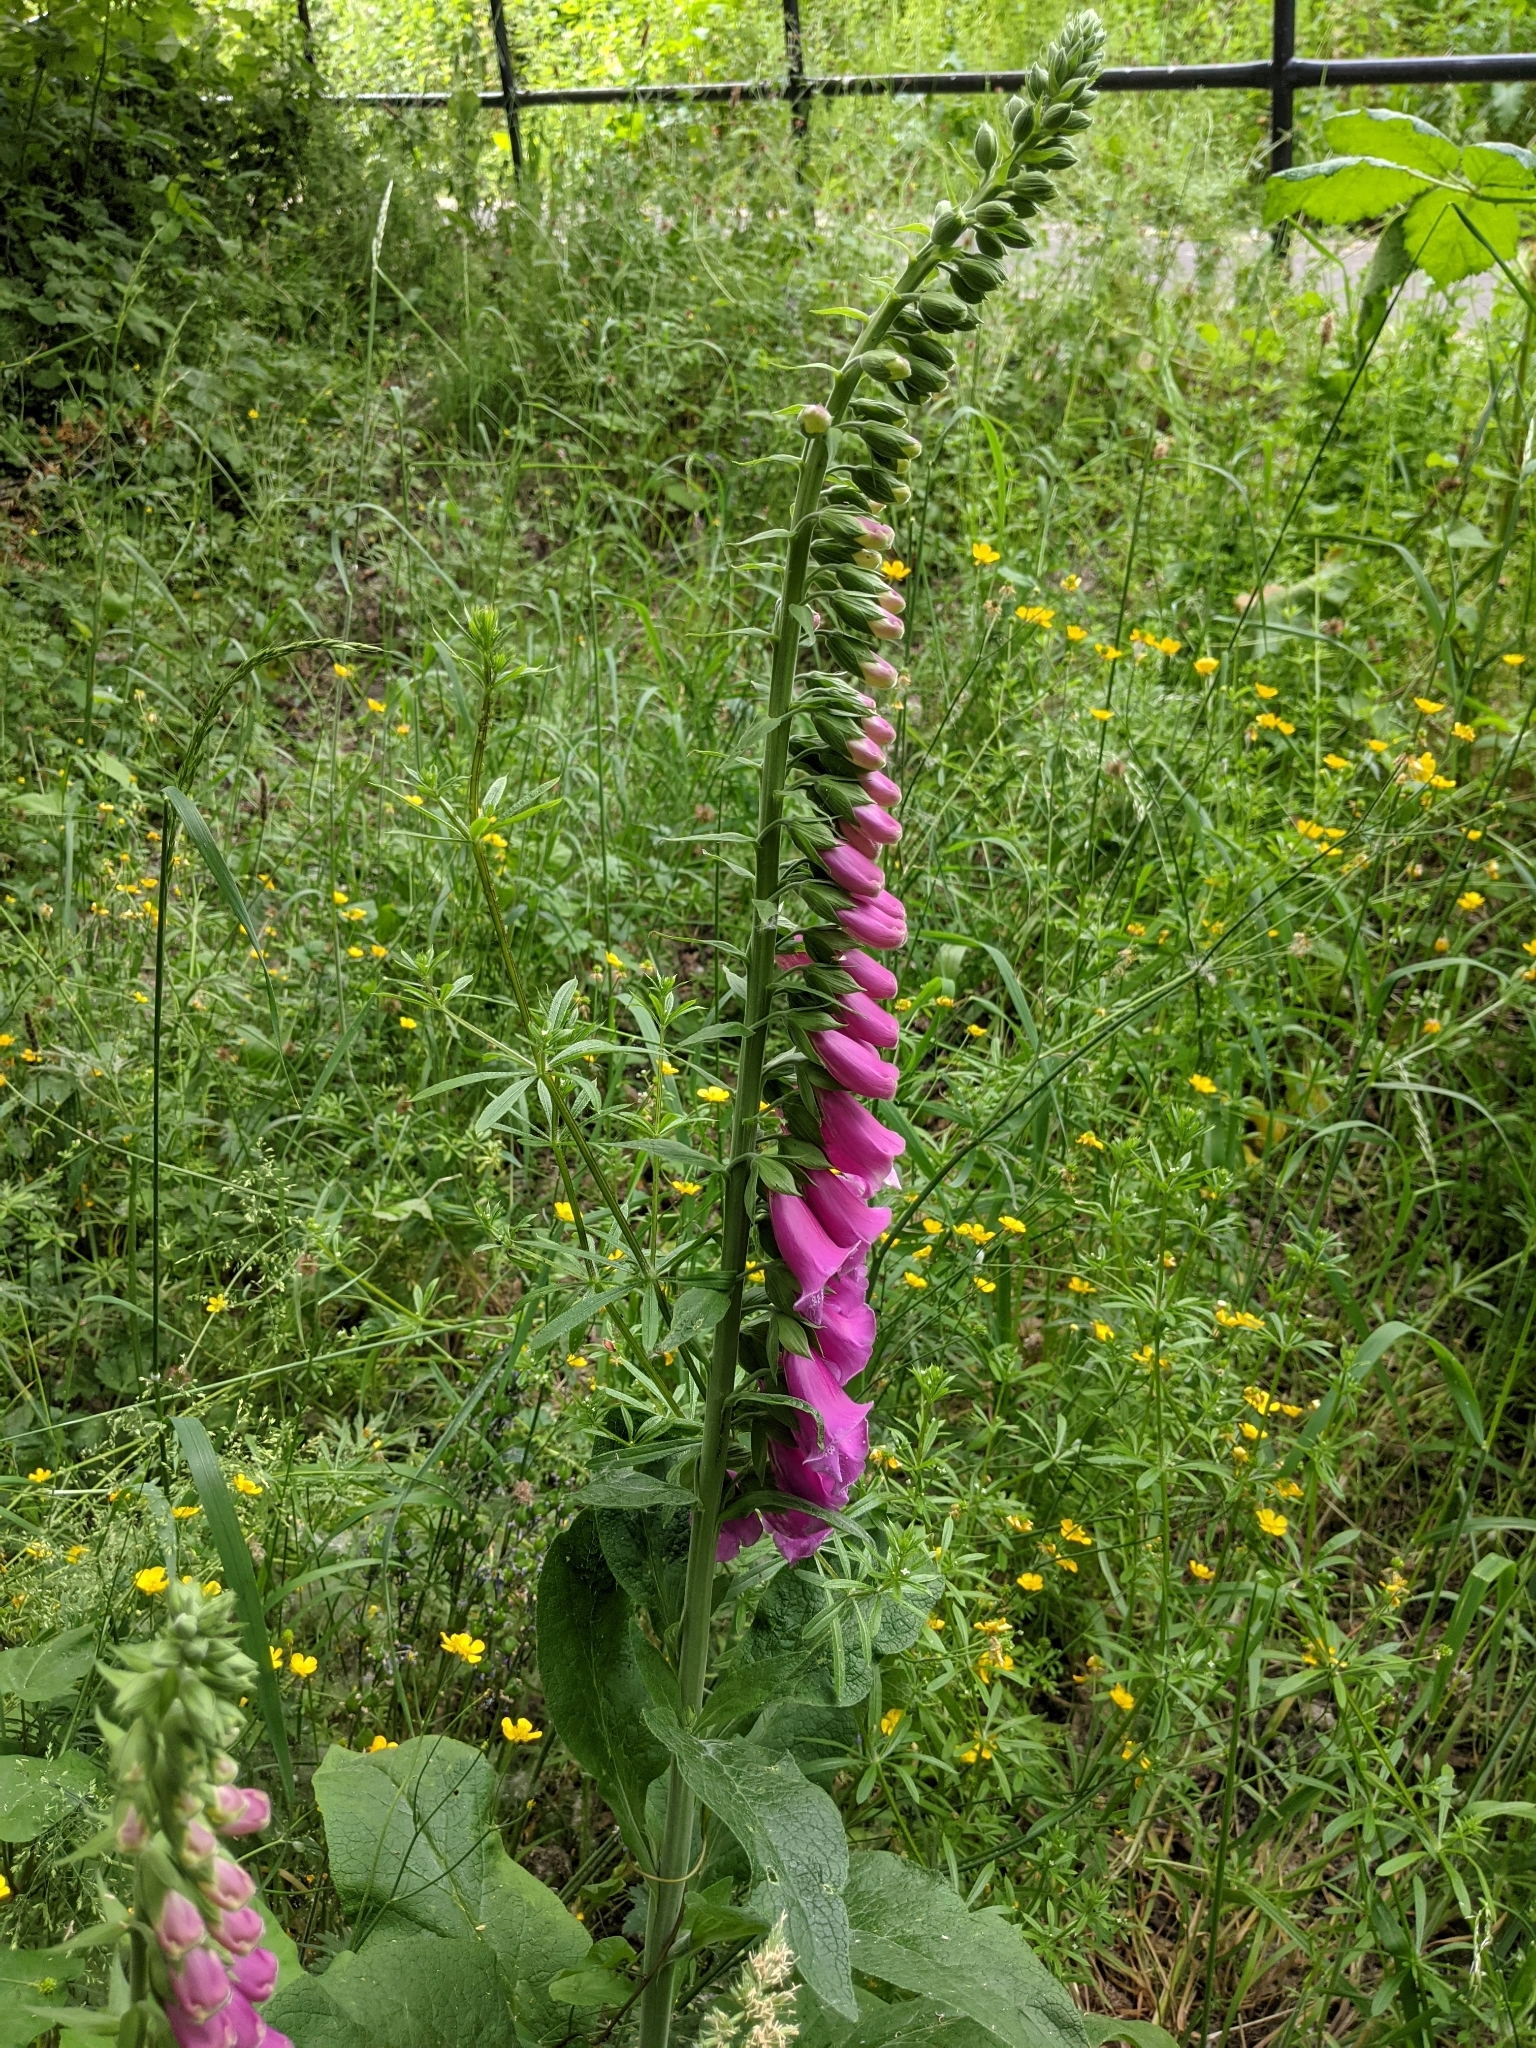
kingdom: Plantae
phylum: Tracheophyta
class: Magnoliopsida
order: Lamiales
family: Plantaginaceae
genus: Digitalis
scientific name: Digitalis purpurea
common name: Foxglove
